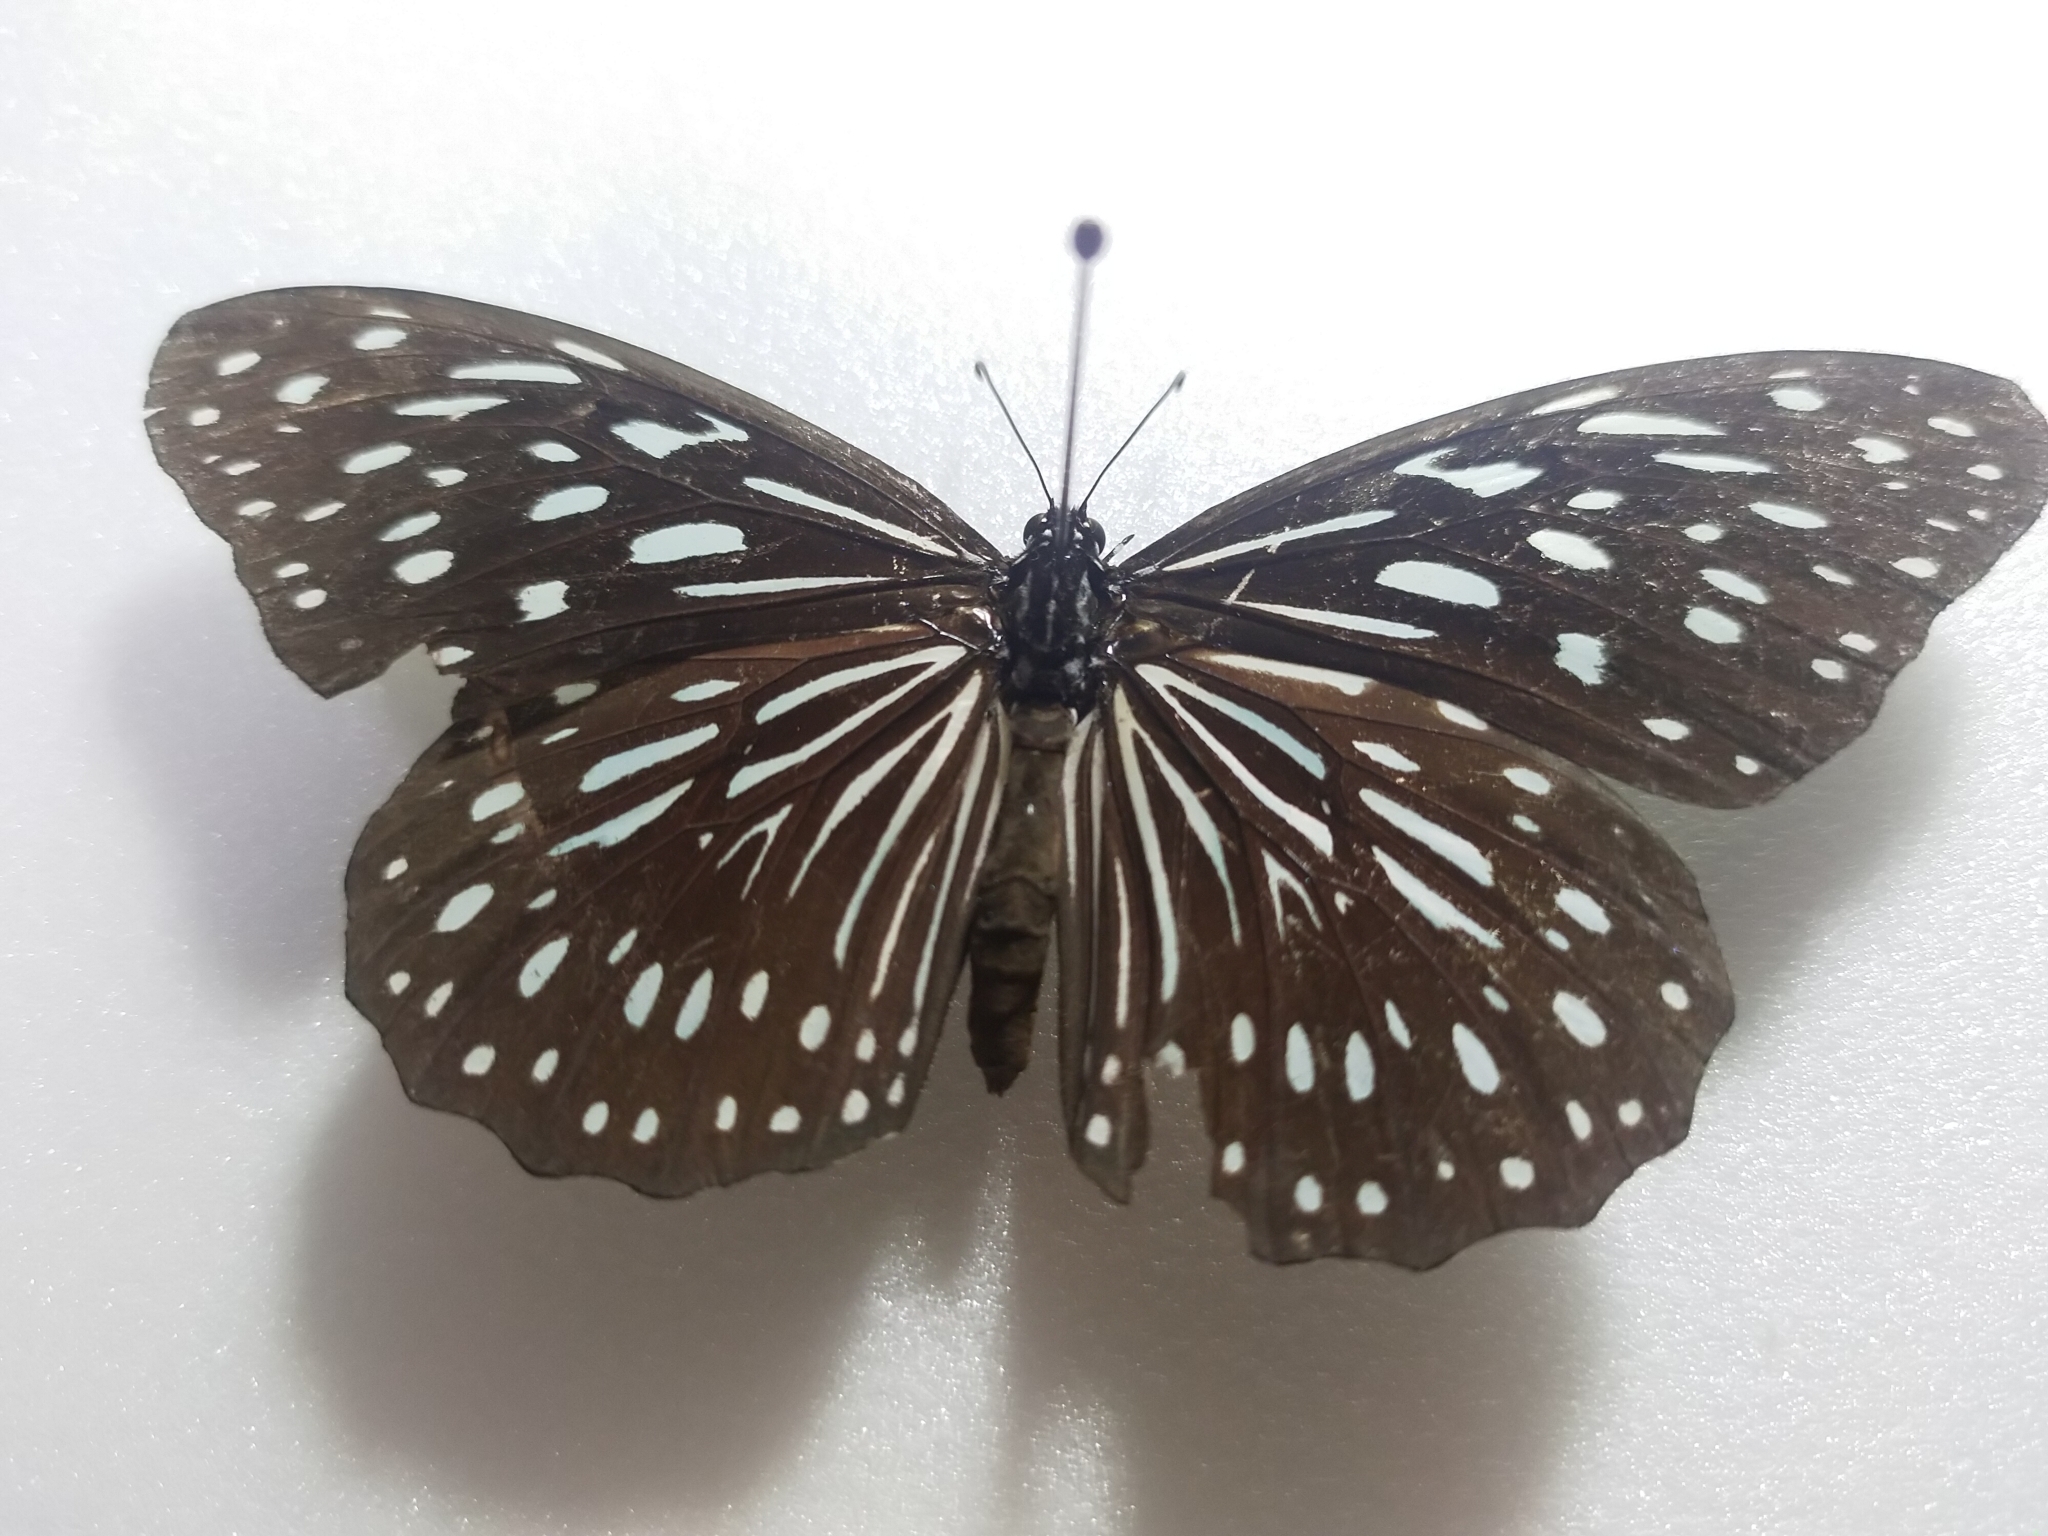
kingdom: Animalia
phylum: Arthropoda
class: Insecta
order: Lepidoptera
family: Nymphalidae
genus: Tirumala
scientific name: Tirumala septentrionis
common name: Dark blue tiger butterfly
